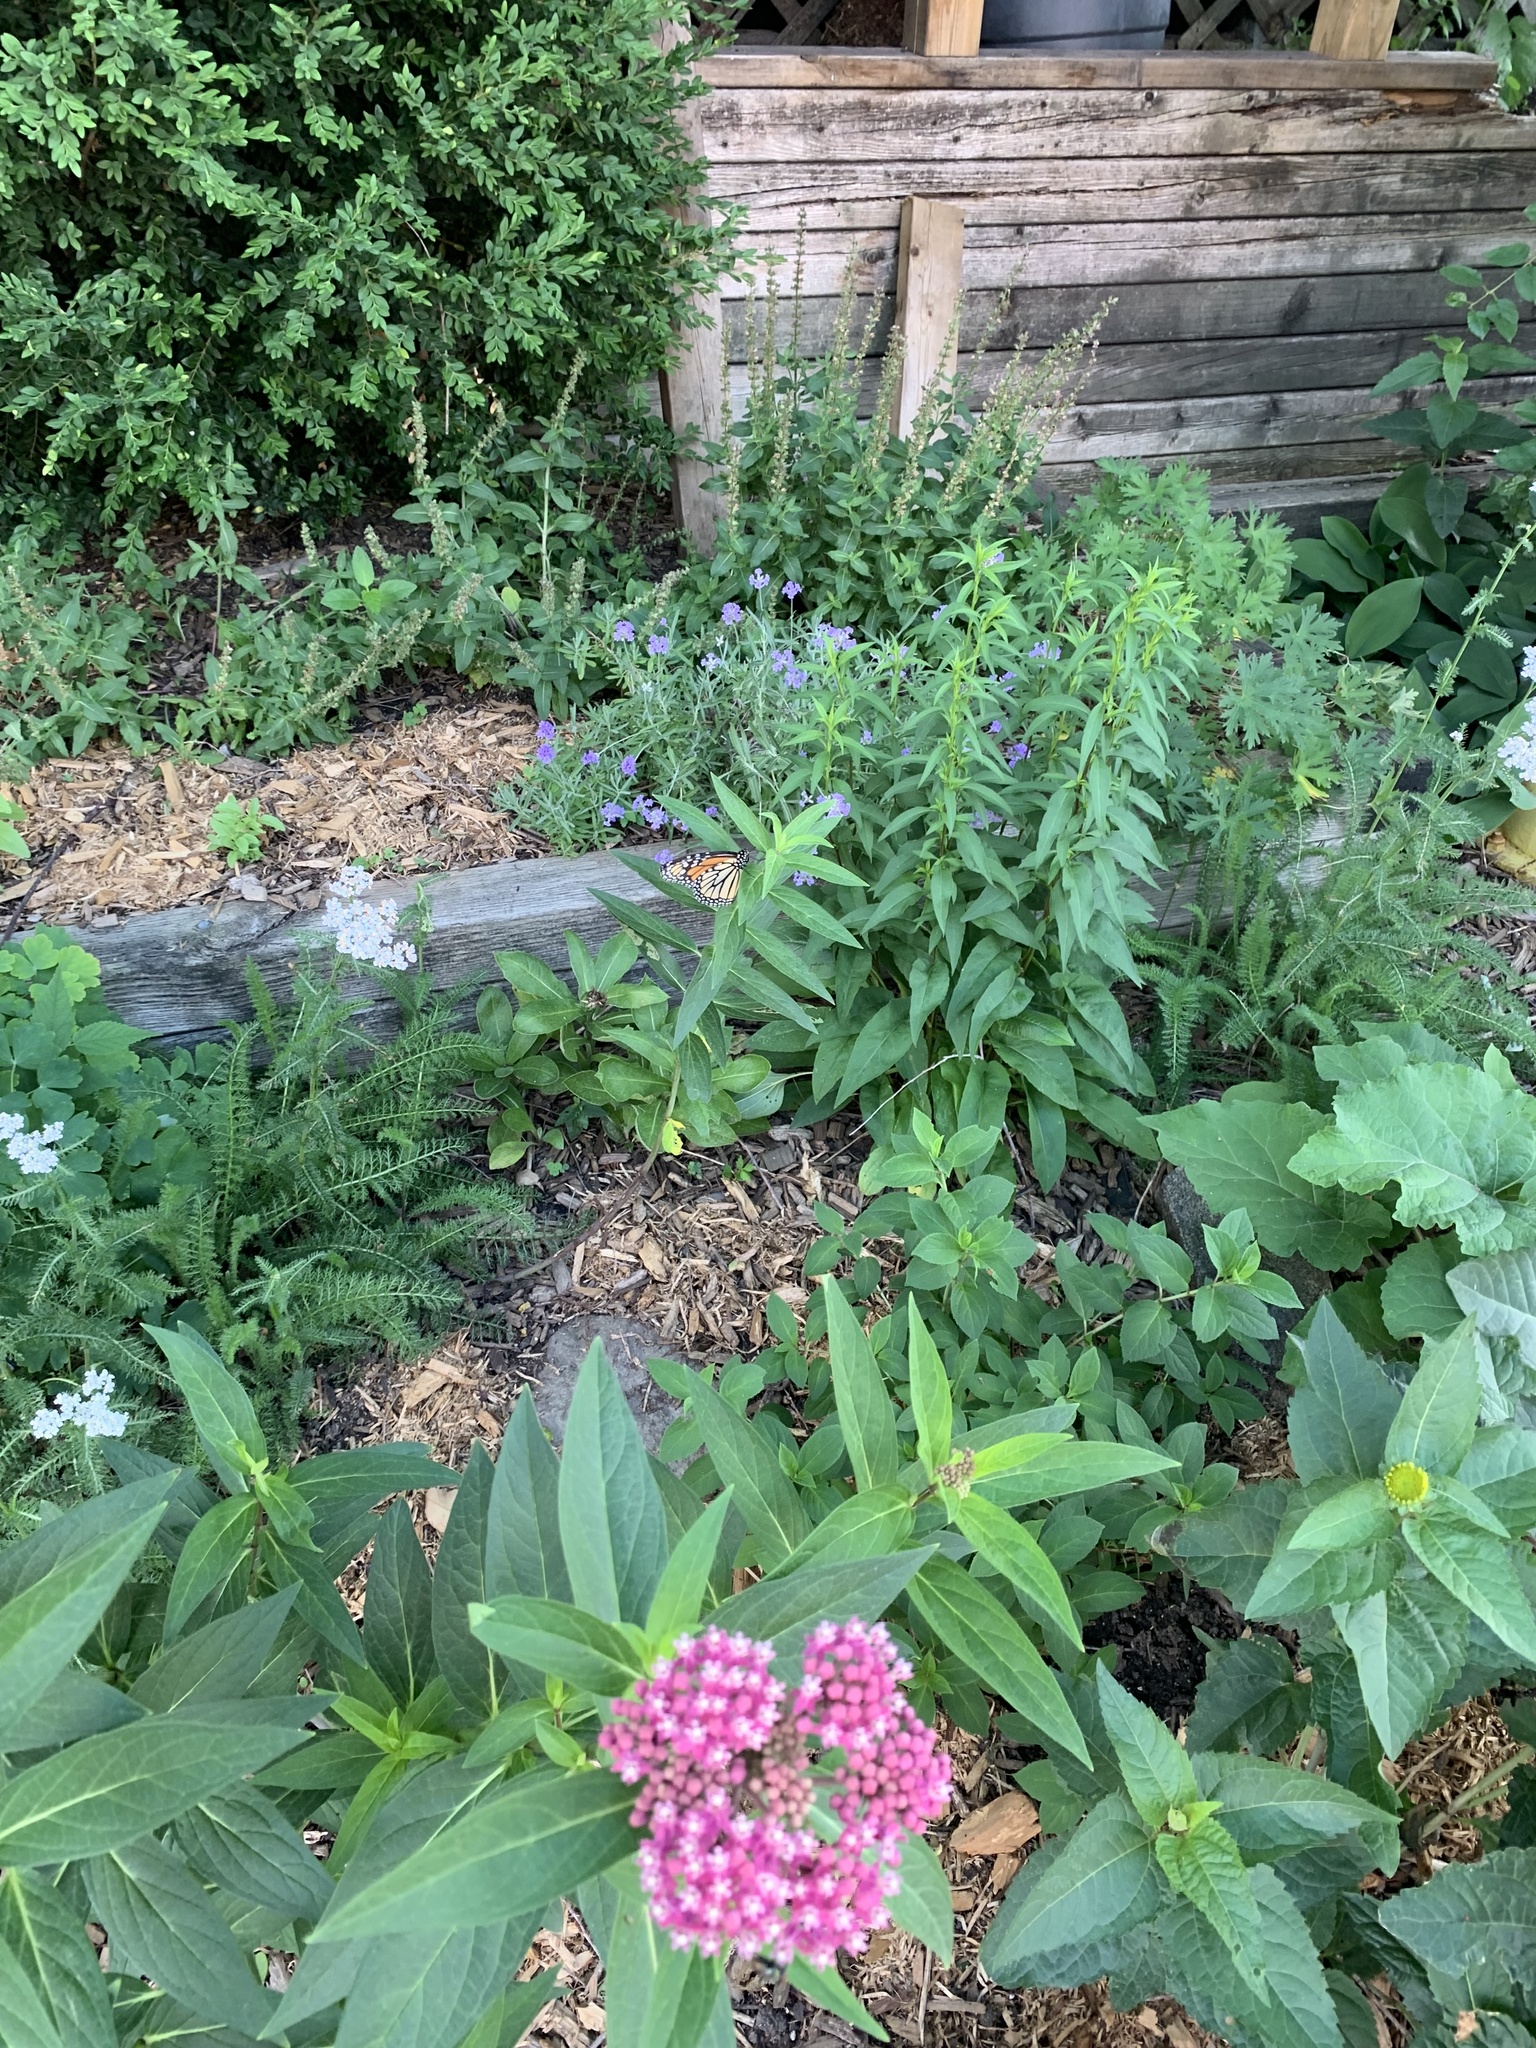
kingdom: Animalia
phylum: Arthropoda
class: Insecta
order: Lepidoptera
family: Nymphalidae
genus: Danaus
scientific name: Danaus plexippus
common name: Monarch
